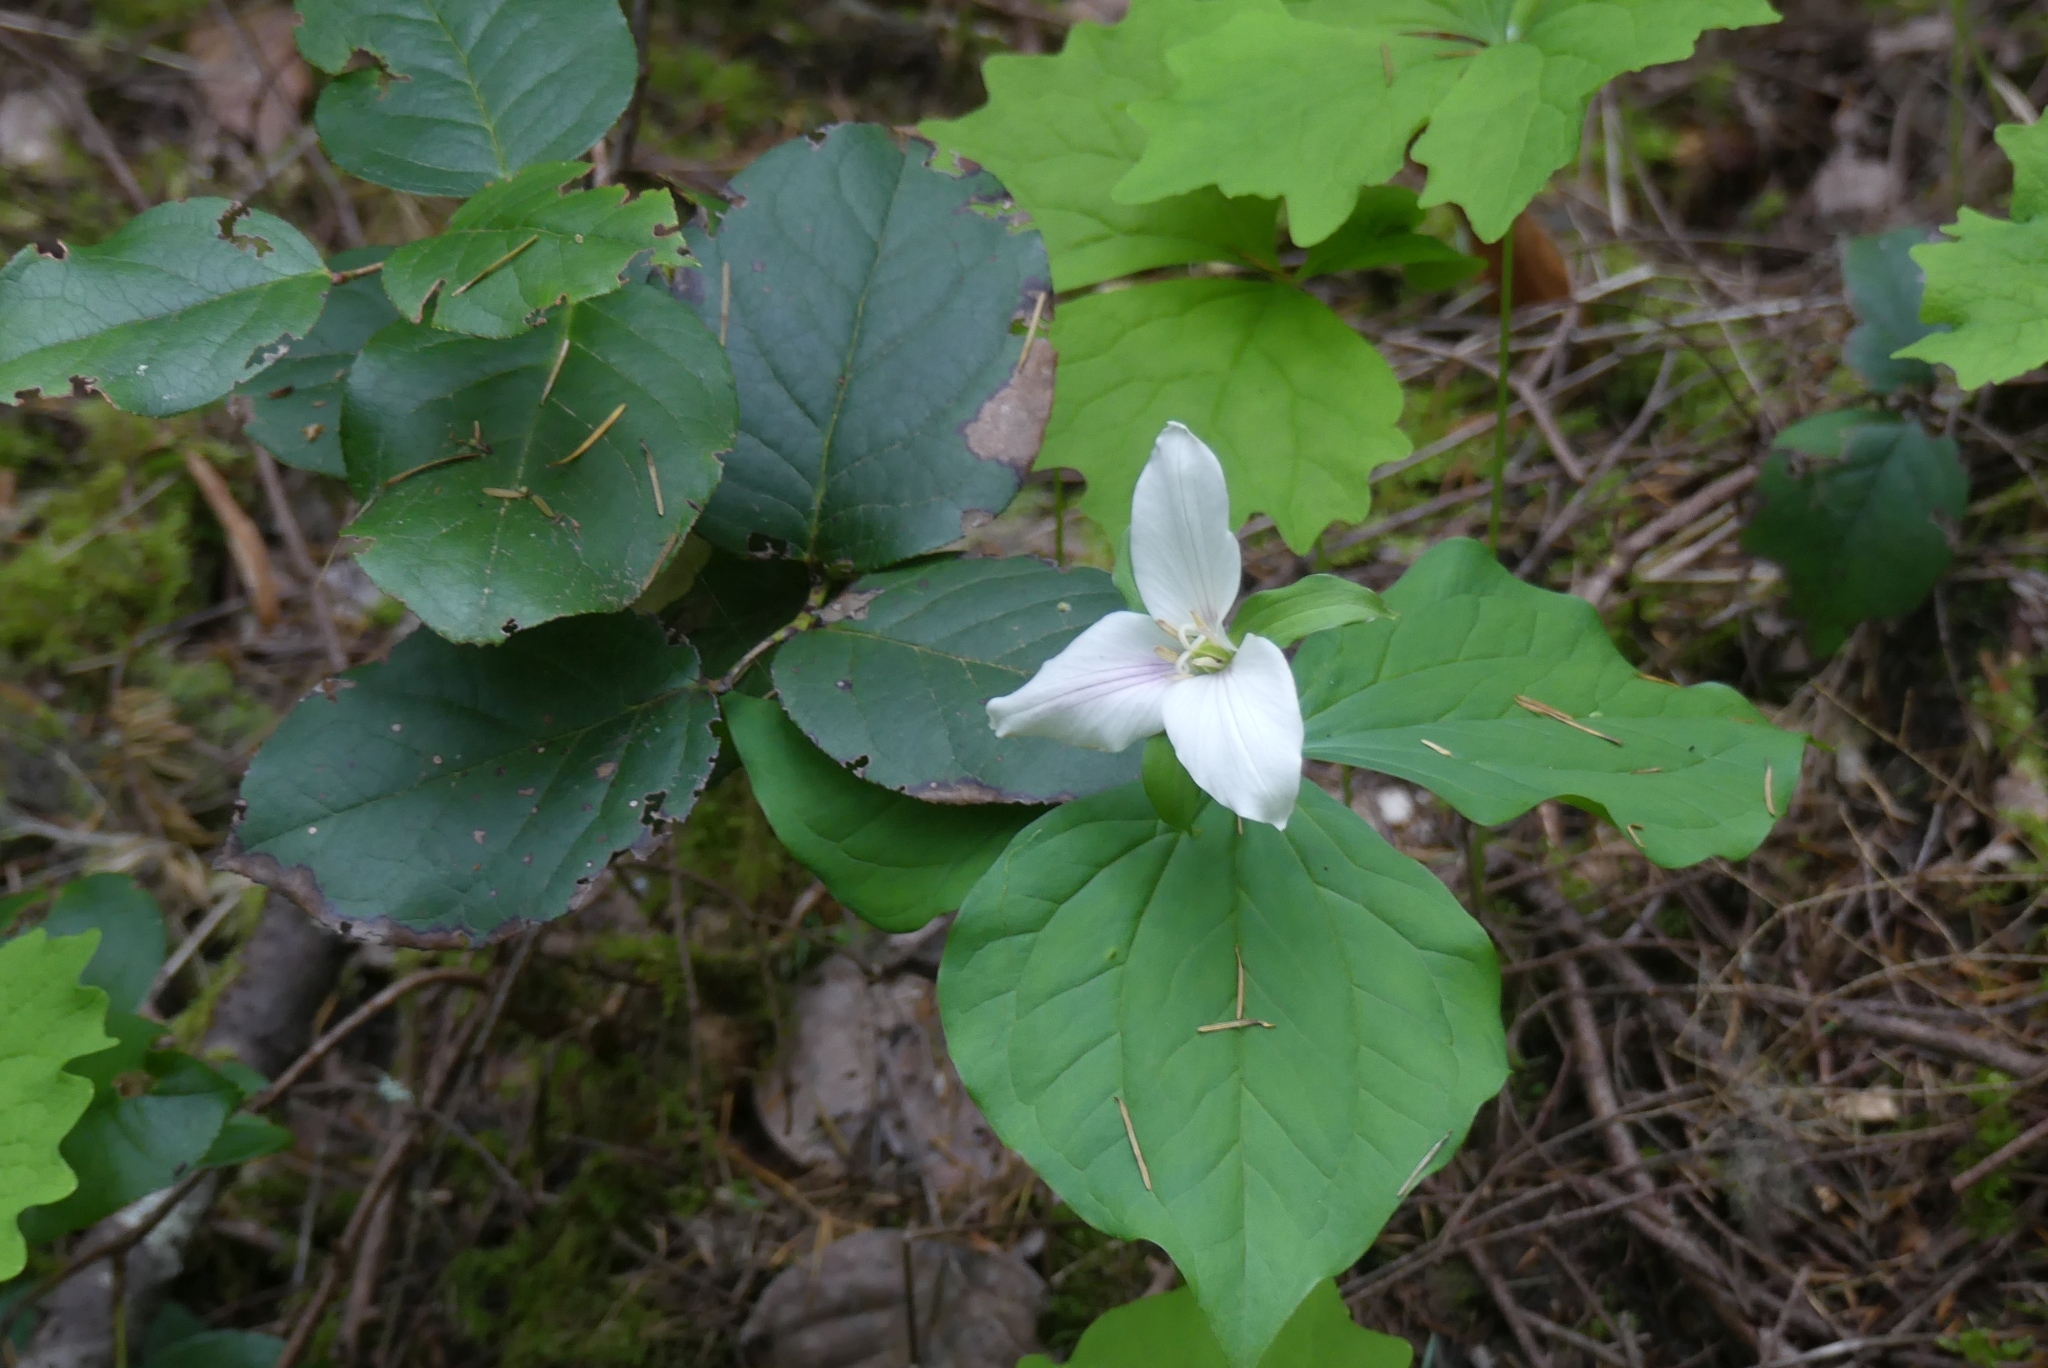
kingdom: Plantae
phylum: Tracheophyta
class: Liliopsida
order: Liliales
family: Melanthiaceae
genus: Trillium
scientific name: Trillium ovatum
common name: Pacific trillium
